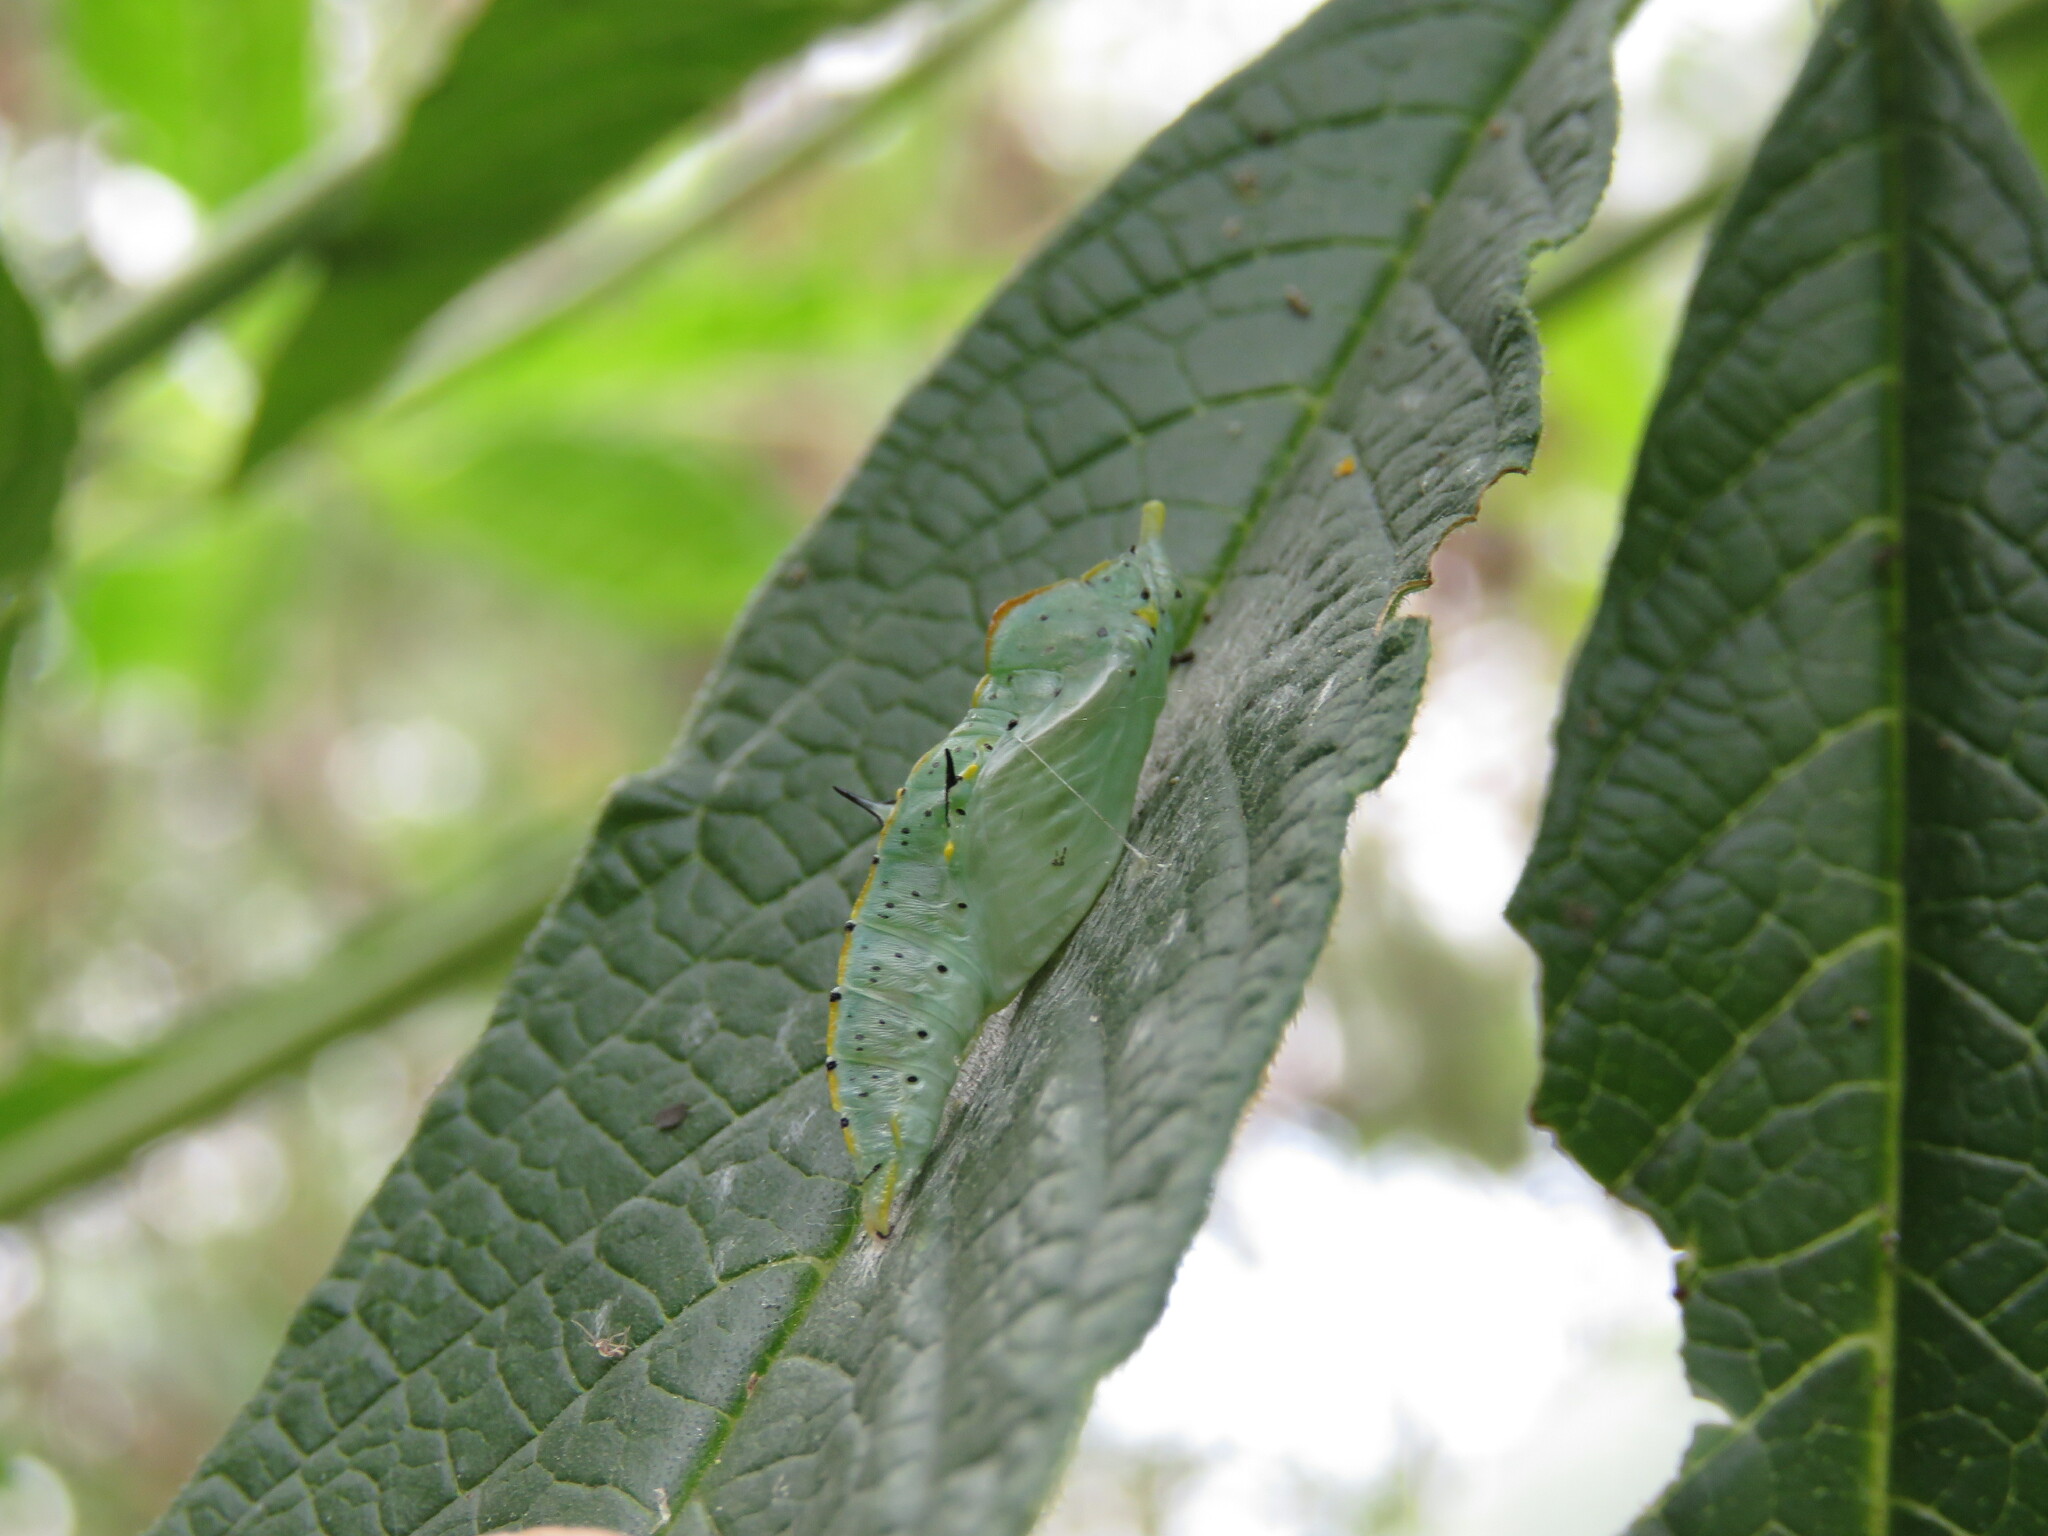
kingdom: Animalia
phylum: Arthropoda
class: Insecta
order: Lepidoptera
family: Pieridae
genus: Leptophobia
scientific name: Leptophobia aripa
